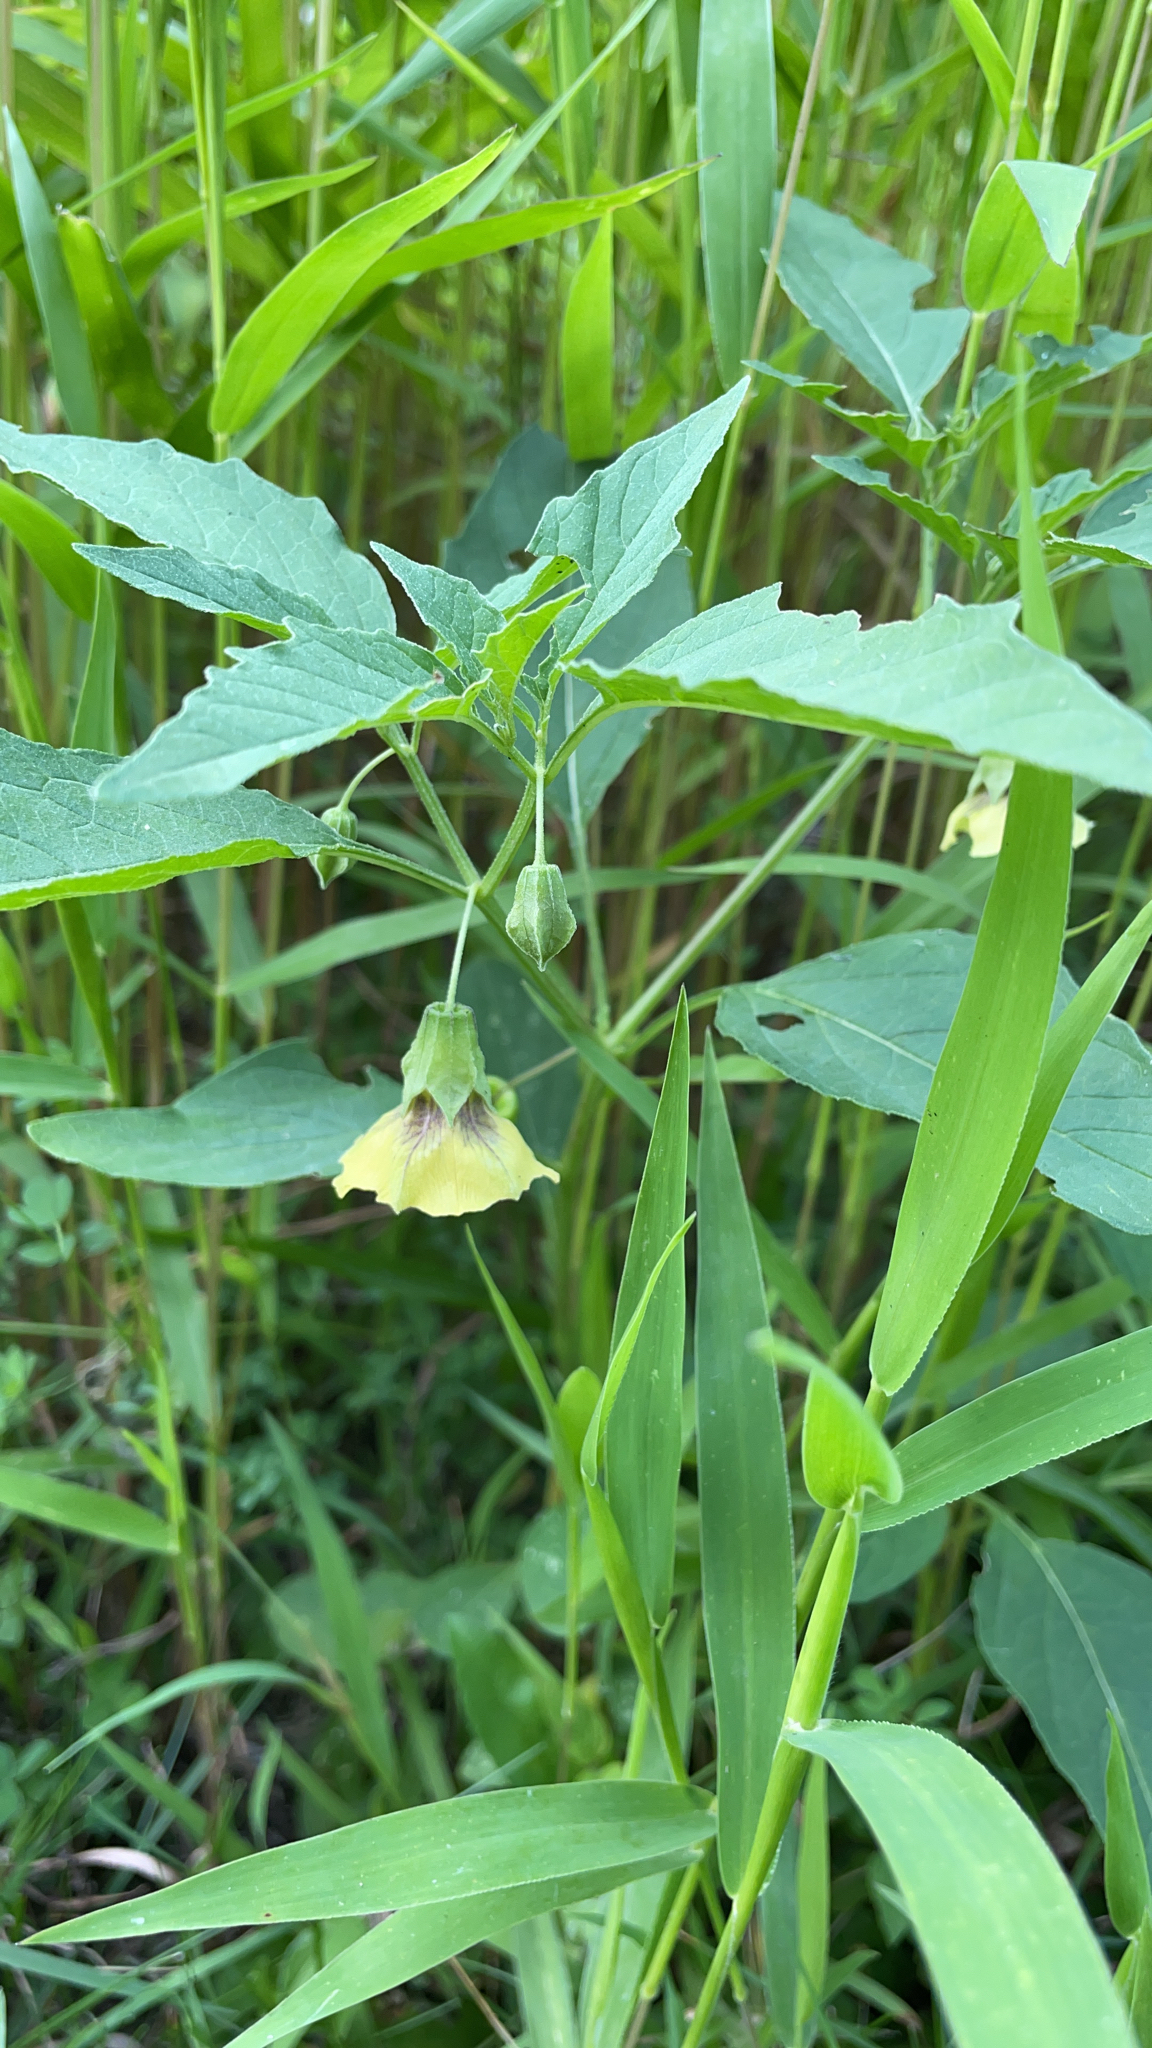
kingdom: Plantae
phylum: Tracheophyta
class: Magnoliopsida
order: Solanales
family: Solanaceae
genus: Physalis
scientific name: Physalis longifolia
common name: Common ground-cherry
